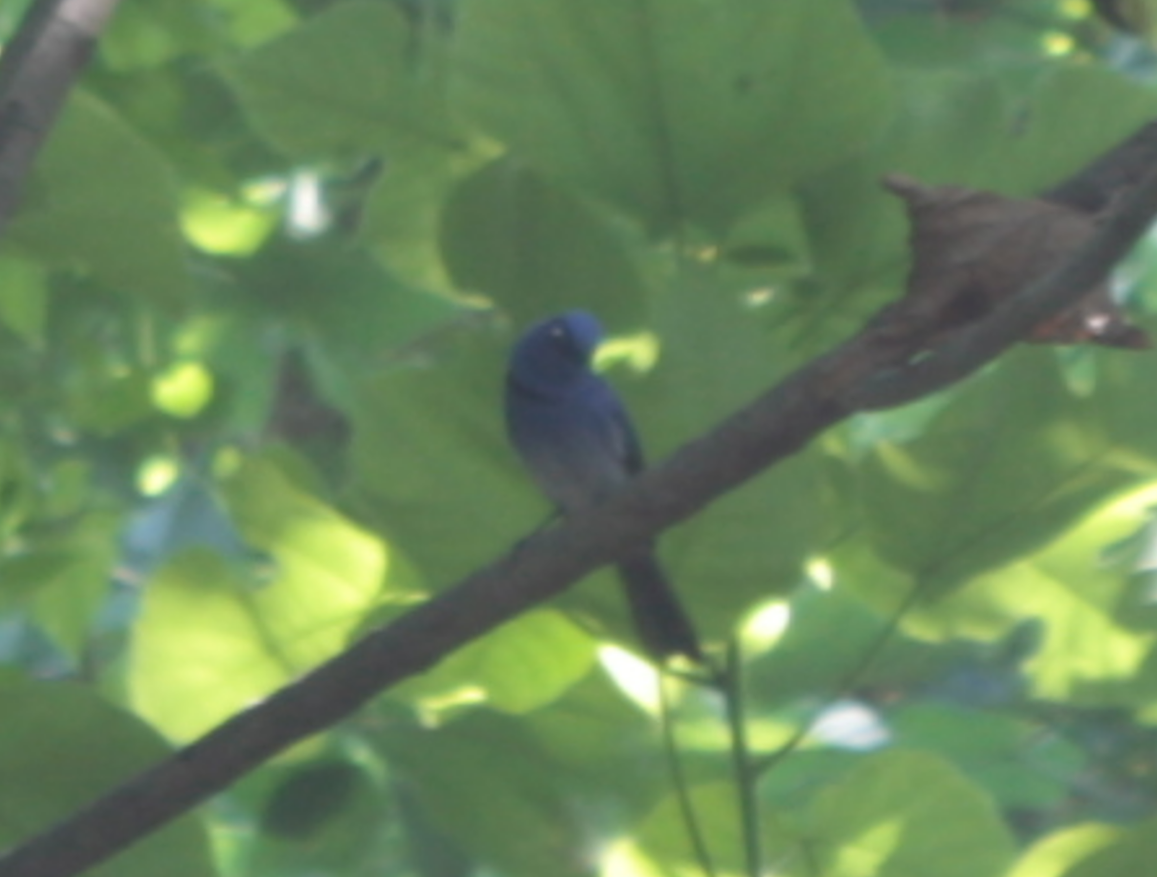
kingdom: Animalia
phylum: Chordata
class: Aves
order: Passeriformes
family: Monarchidae
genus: Hypothymis
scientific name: Hypothymis azurea
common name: Black-naped monarch
